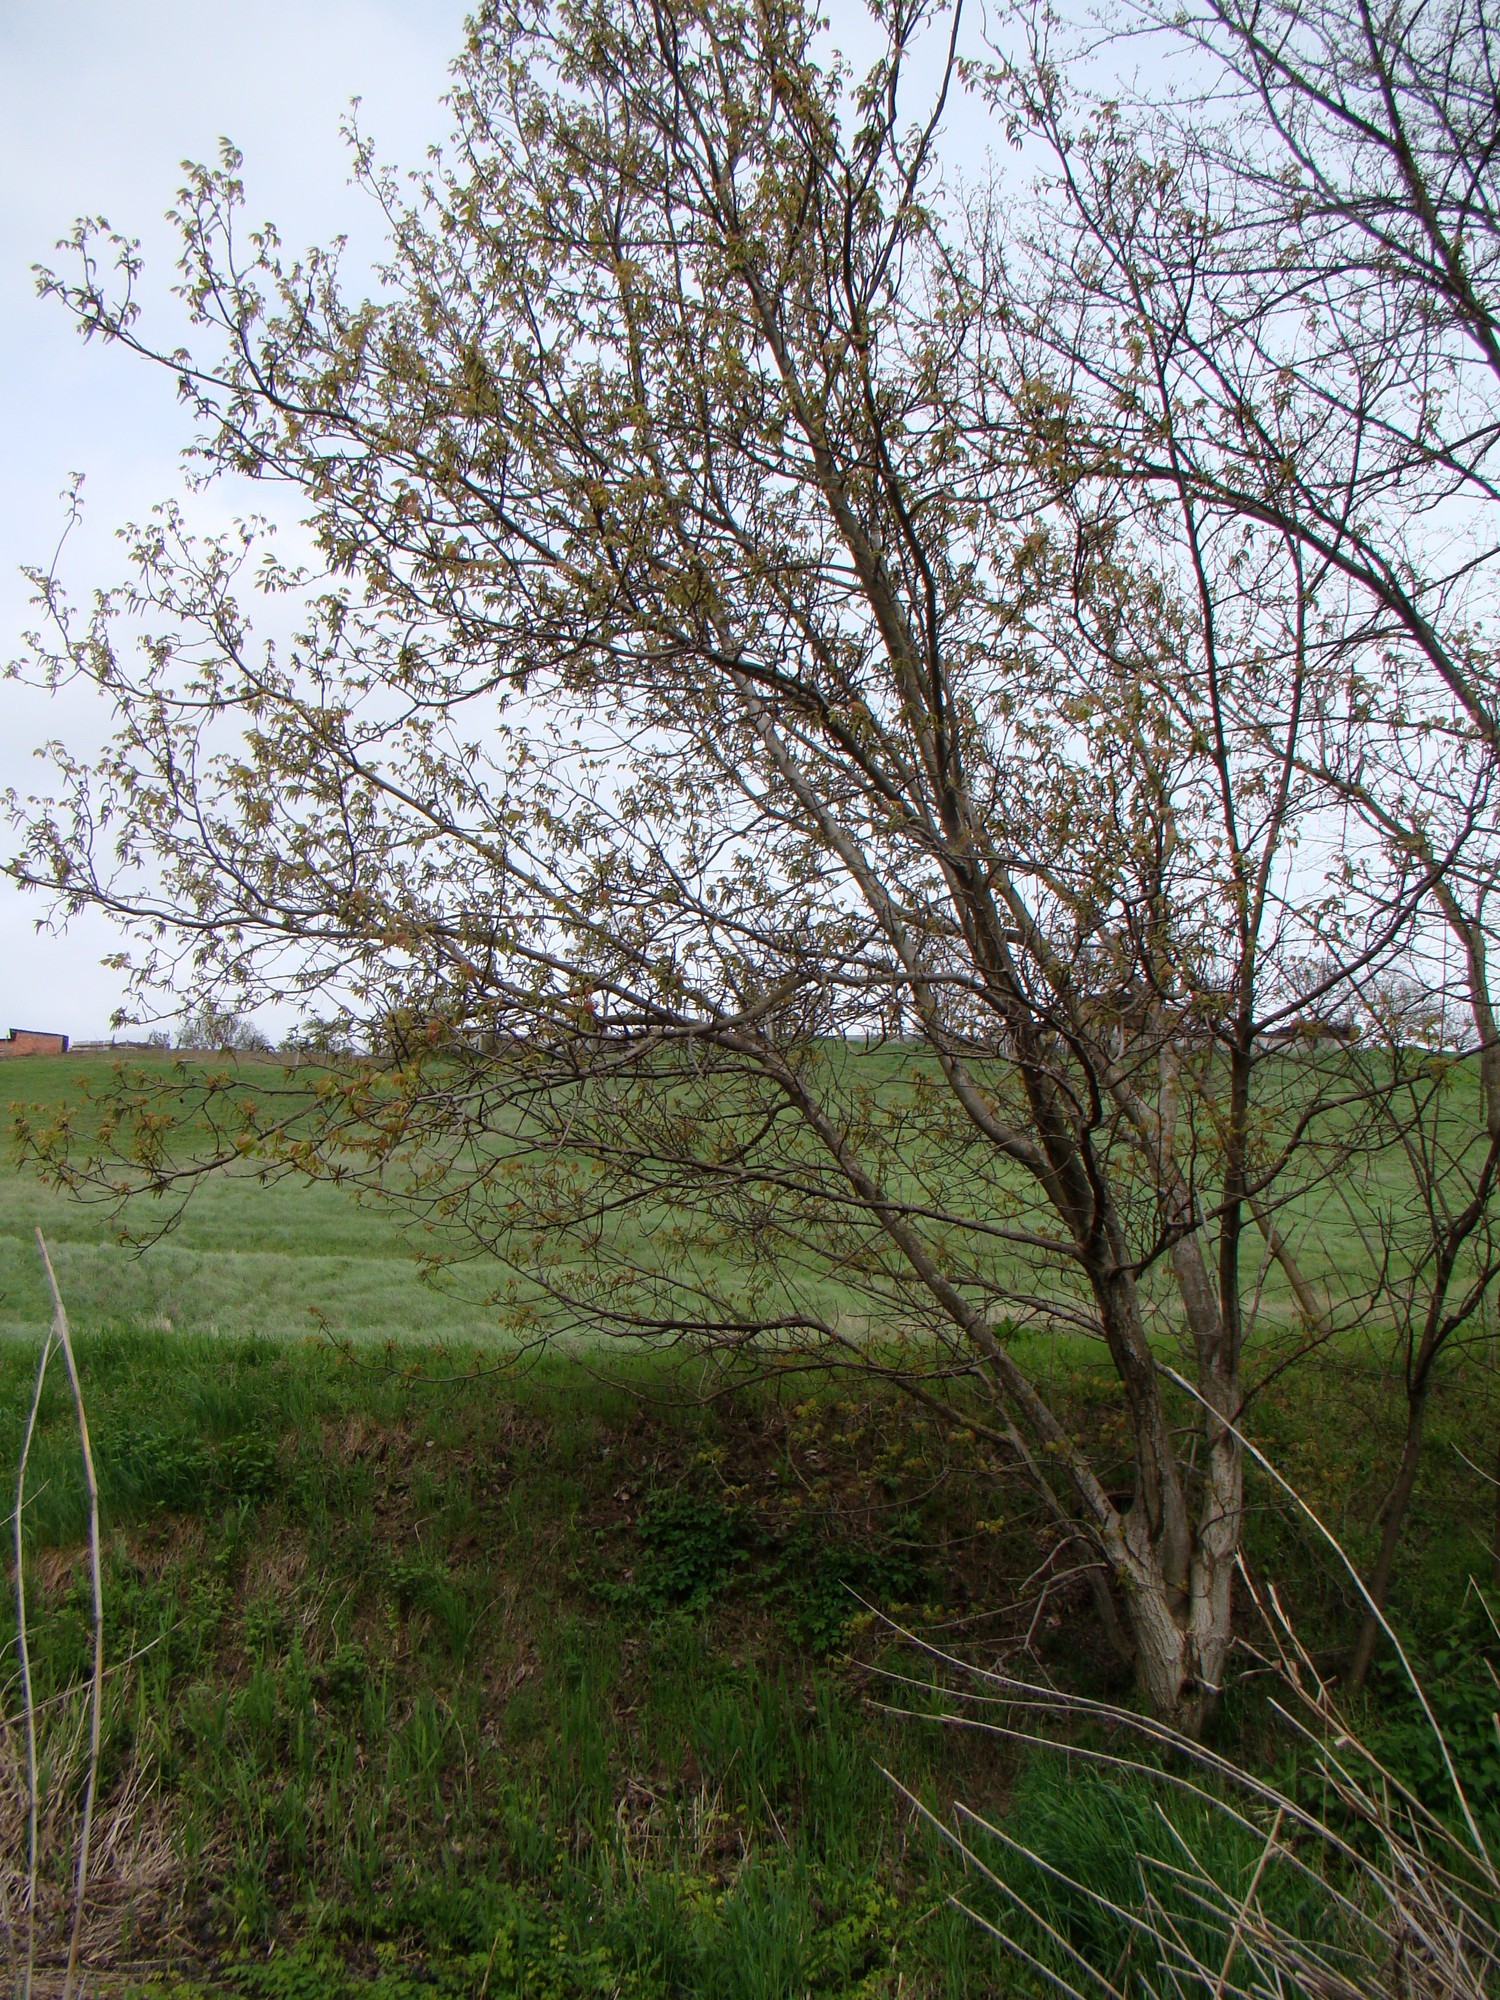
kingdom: Plantae
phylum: Tracheophyta
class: Magnoliopsida
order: Fagales
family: Juglandaceae
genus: Juglans
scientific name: Juglans regia
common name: Walnut
